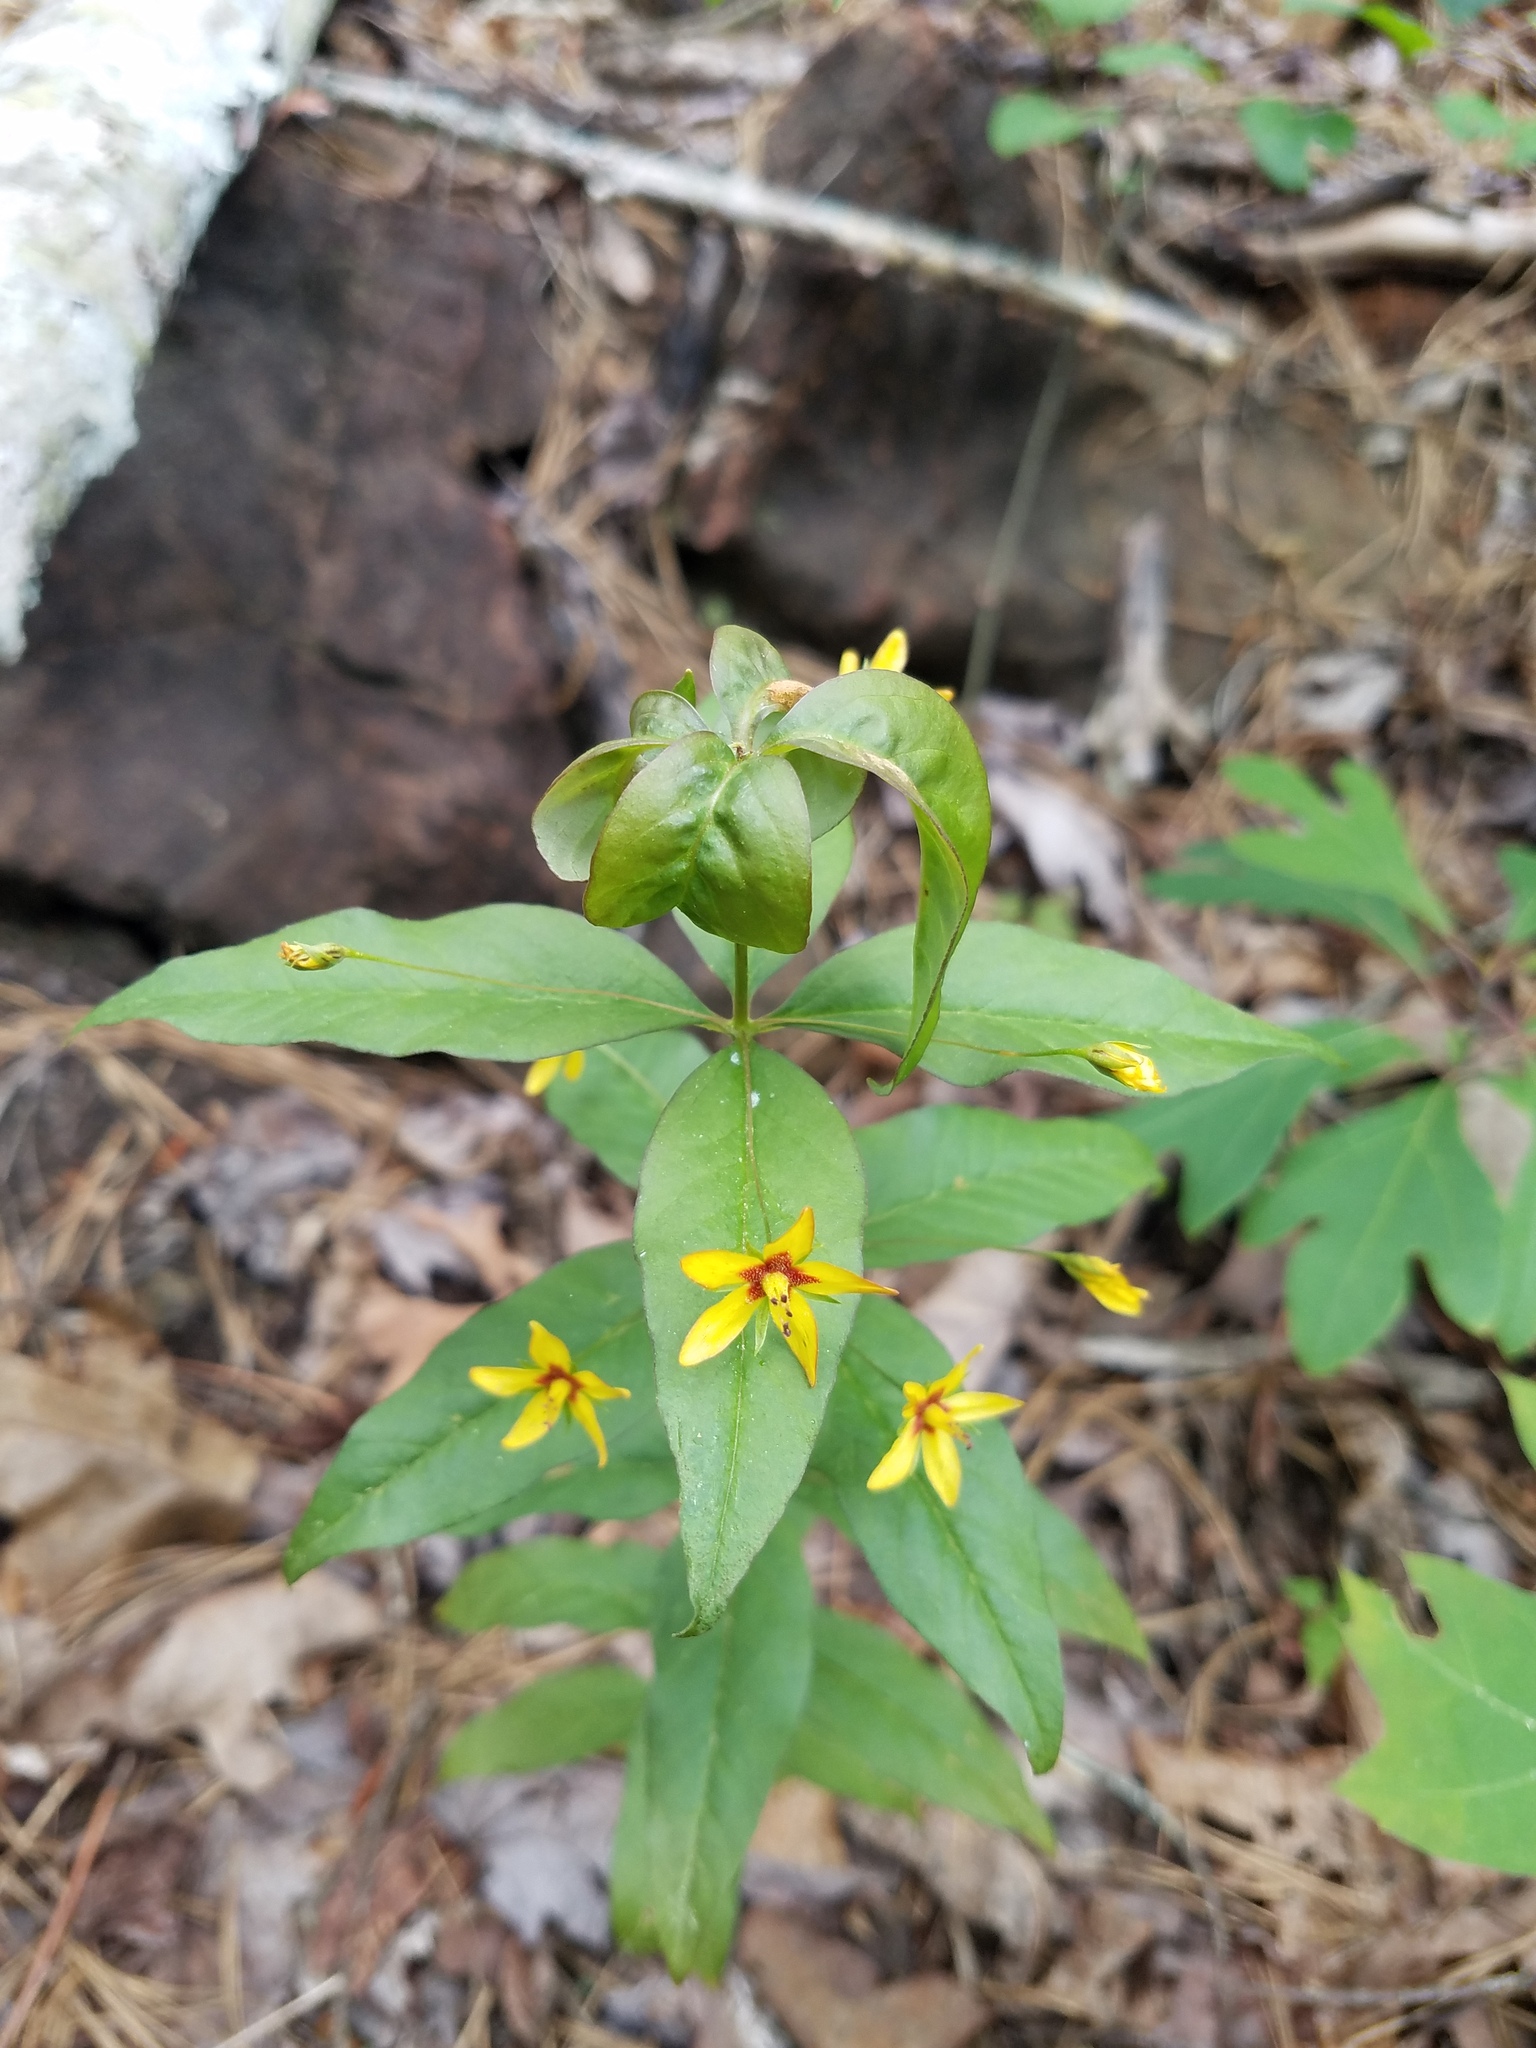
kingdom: Plantae
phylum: Tracheophyta
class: Magnoliopsida
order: Ericales
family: Primulaceae
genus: Lysimachia
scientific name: Lysimachia quadrifolia
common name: Whorled loosestrife
